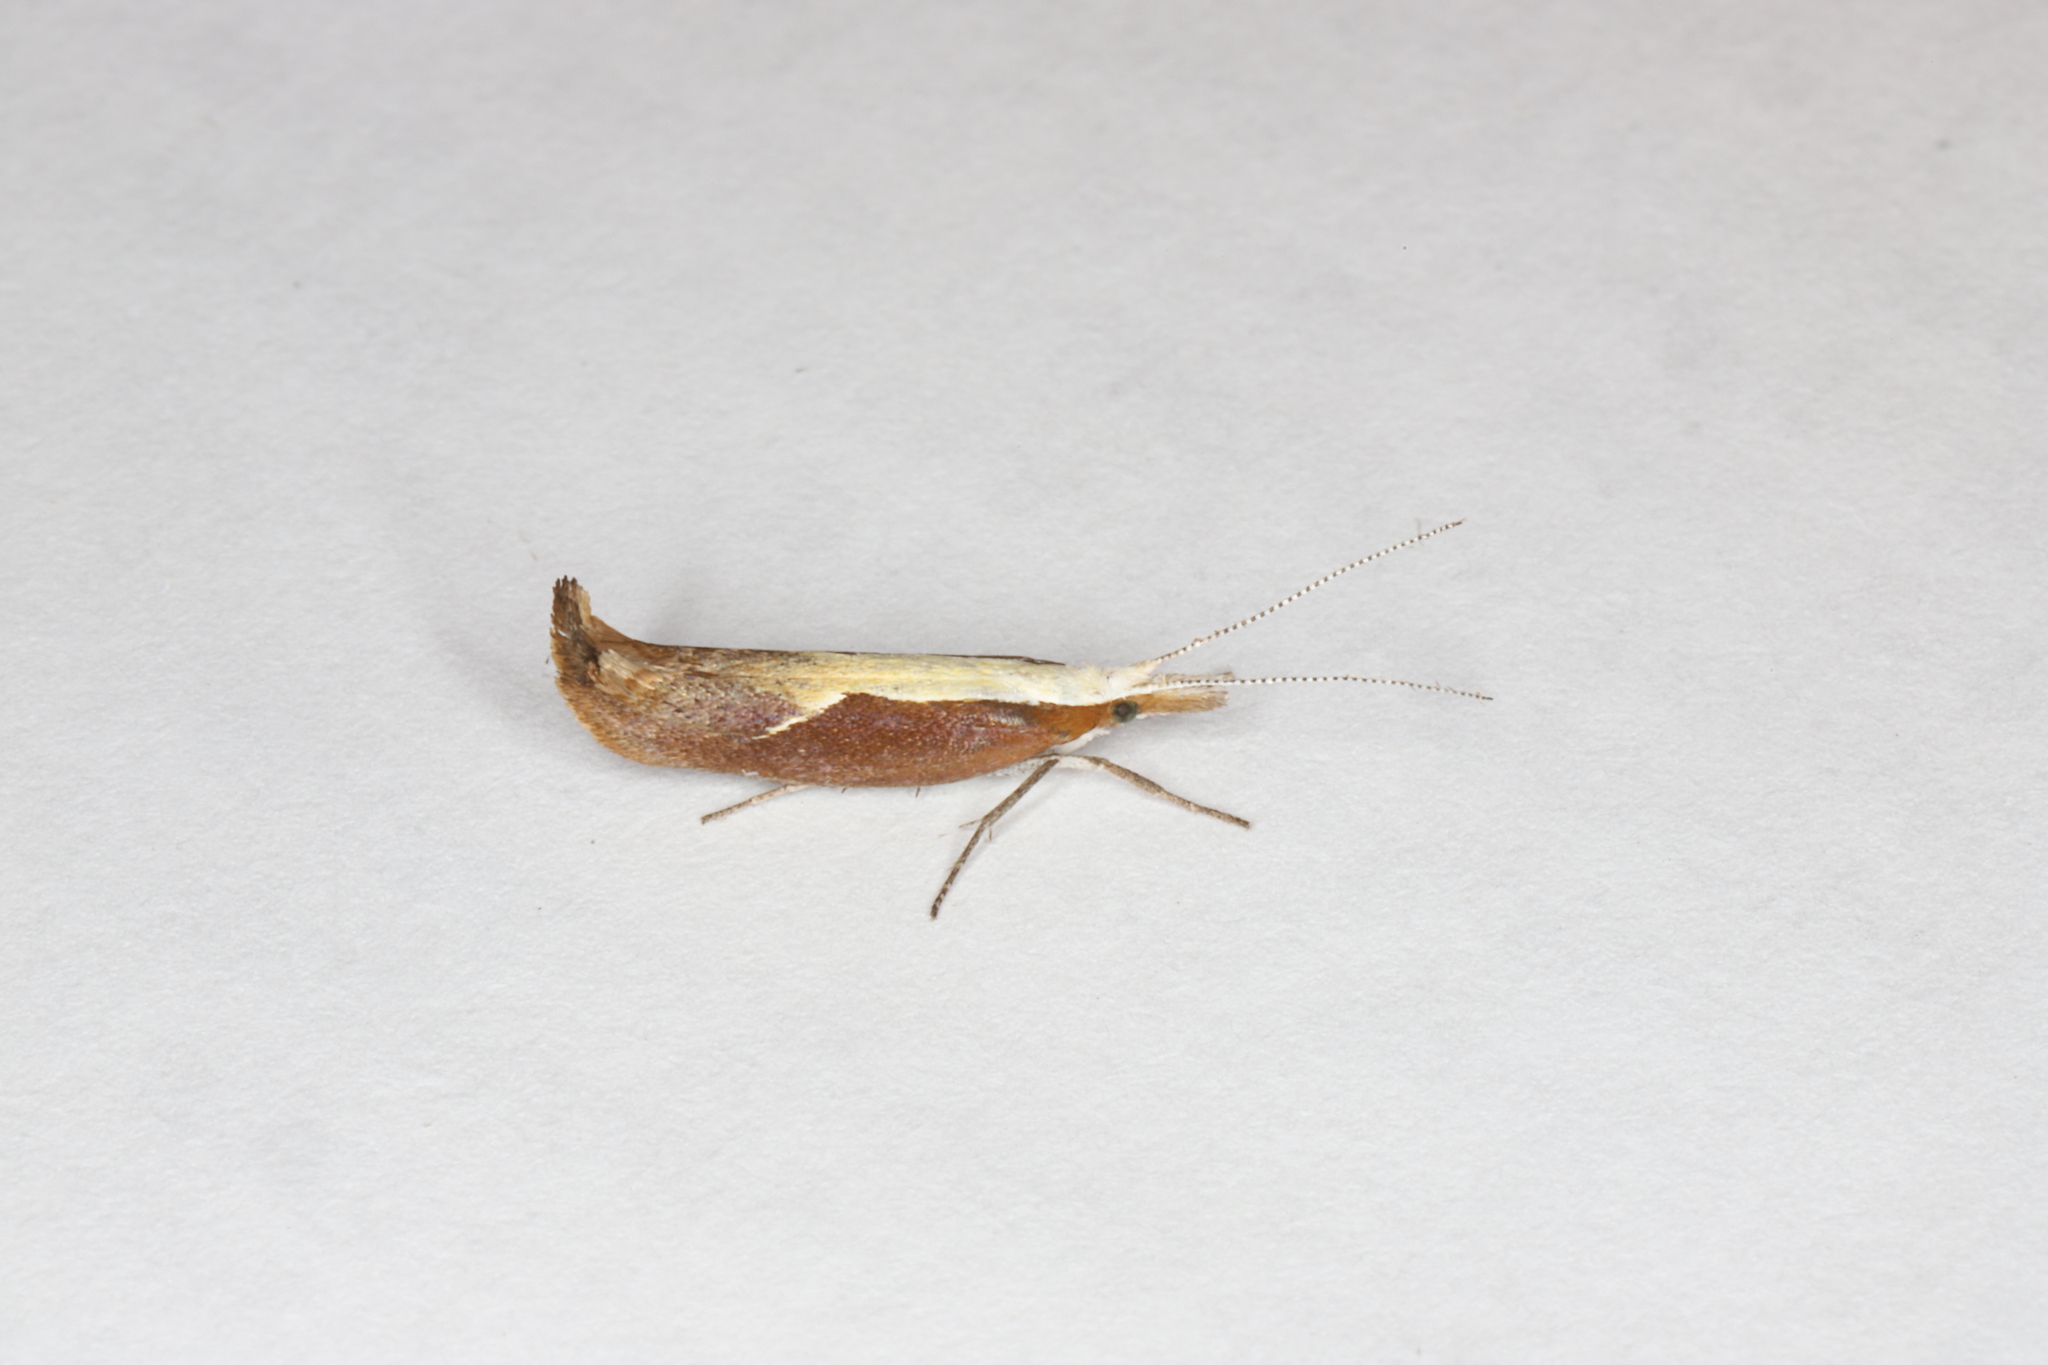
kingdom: Animalia
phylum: Arthropoda
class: Insecta
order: Lepidoptera
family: Ypsolophidae
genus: Ypsolopha
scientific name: Ypsolopha dentella
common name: Honeysuckle moth
